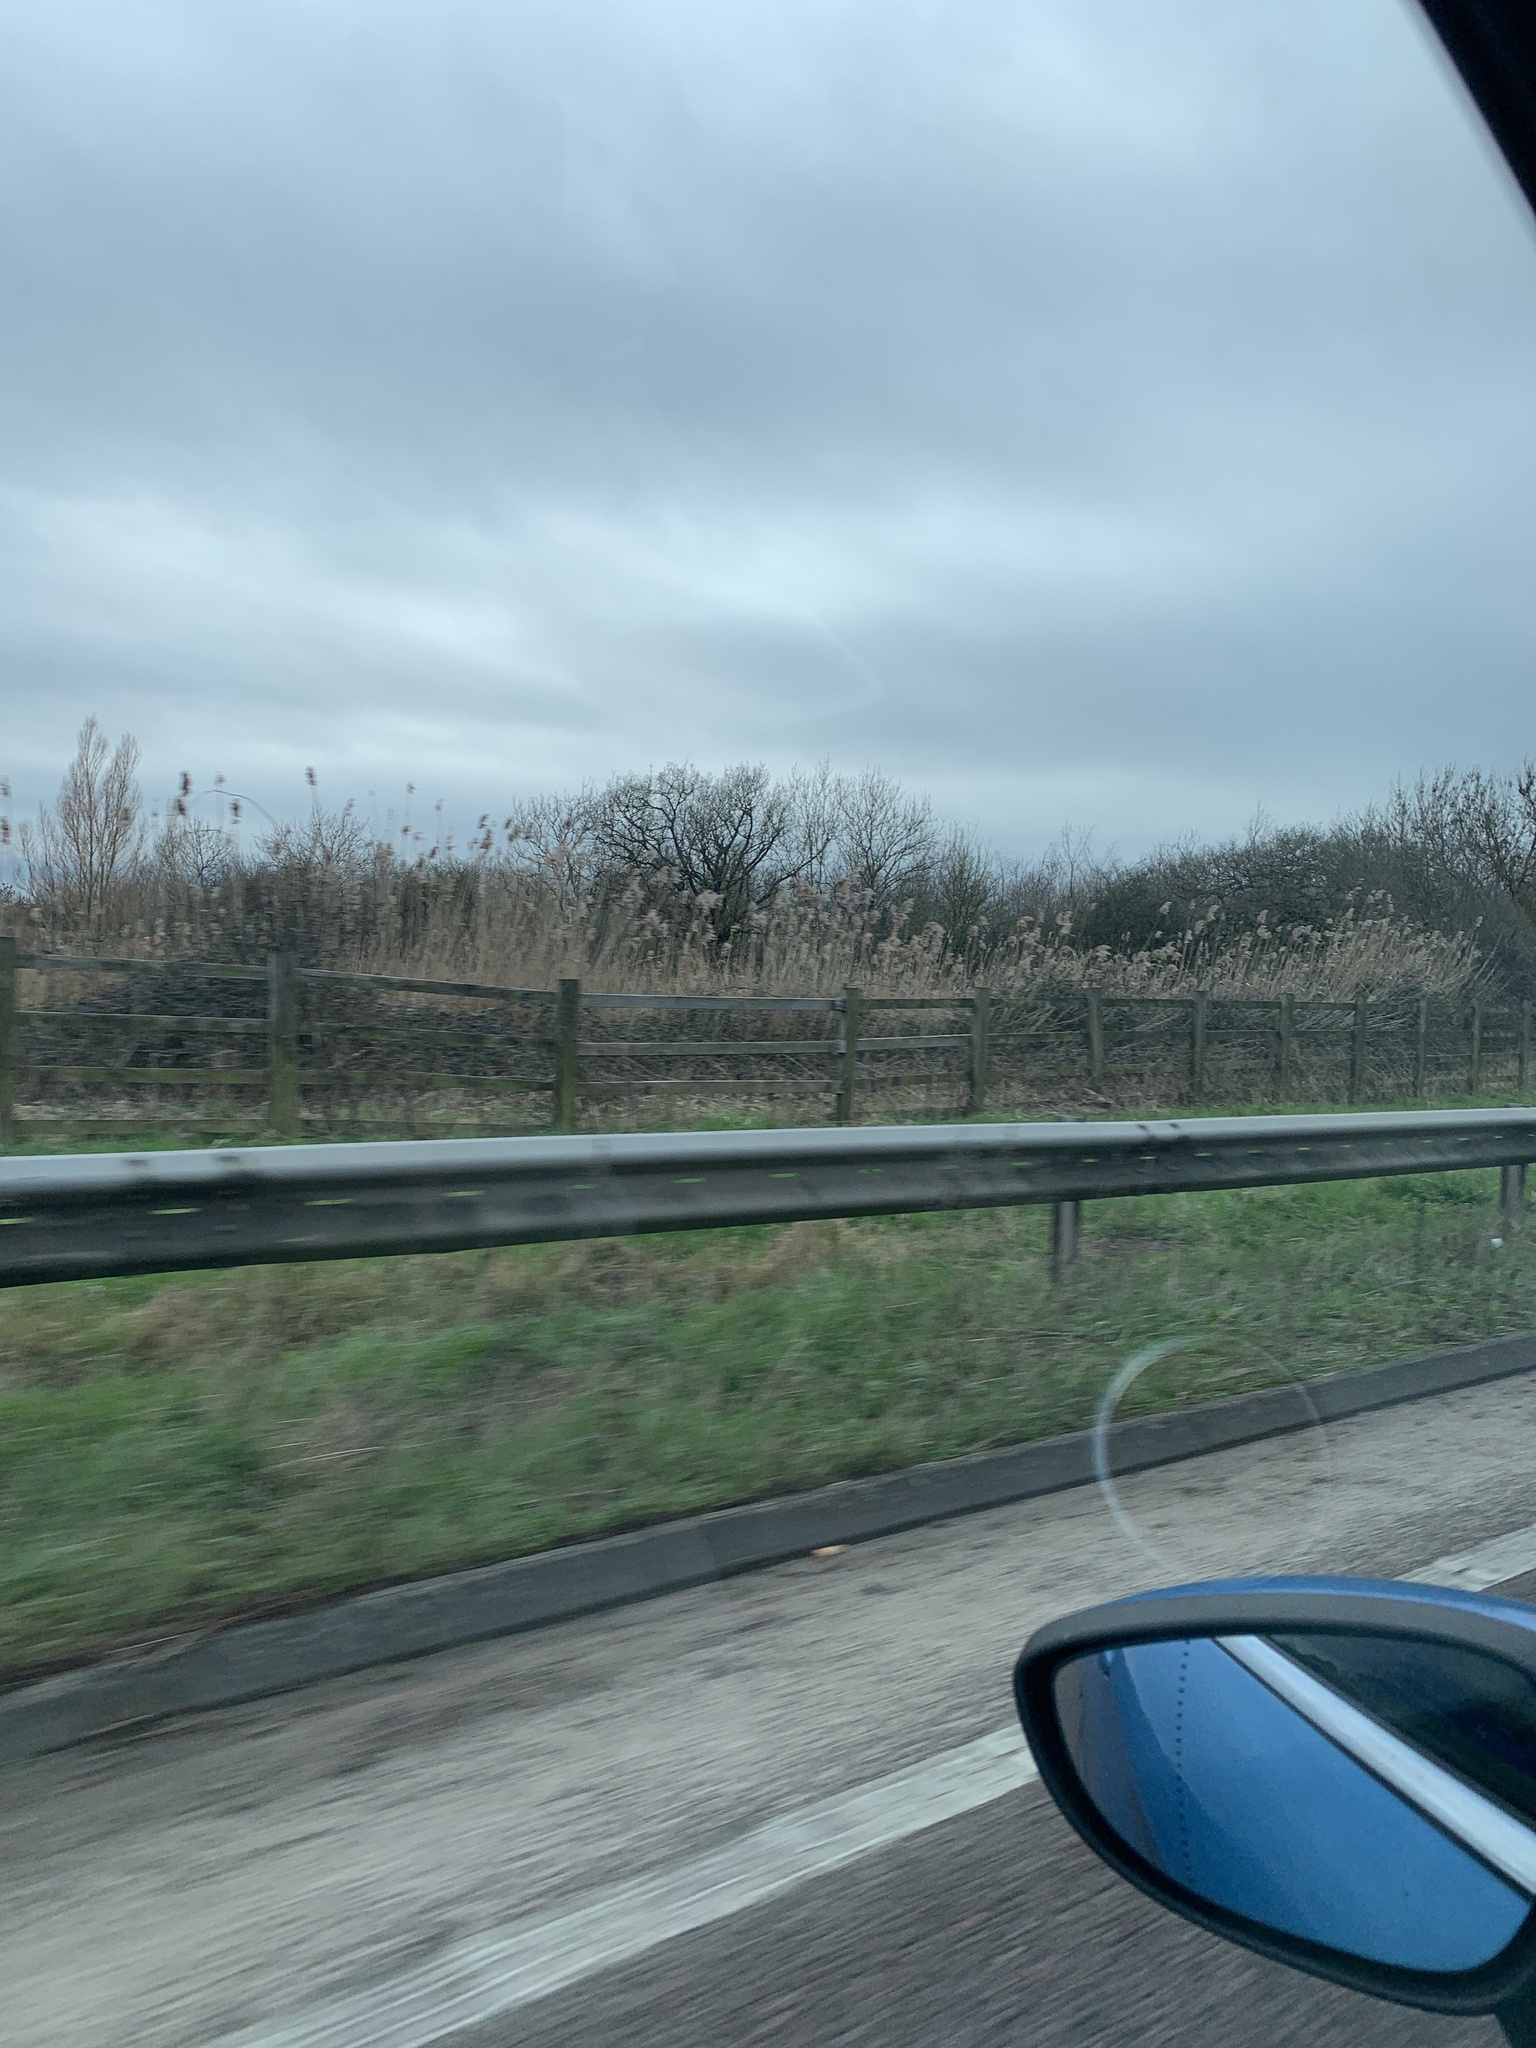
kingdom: Plantae
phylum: Tracheophyta
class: Liliopsida
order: Poales
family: Poaceae
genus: Phragmites
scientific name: Phragmites australis
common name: Common reed
